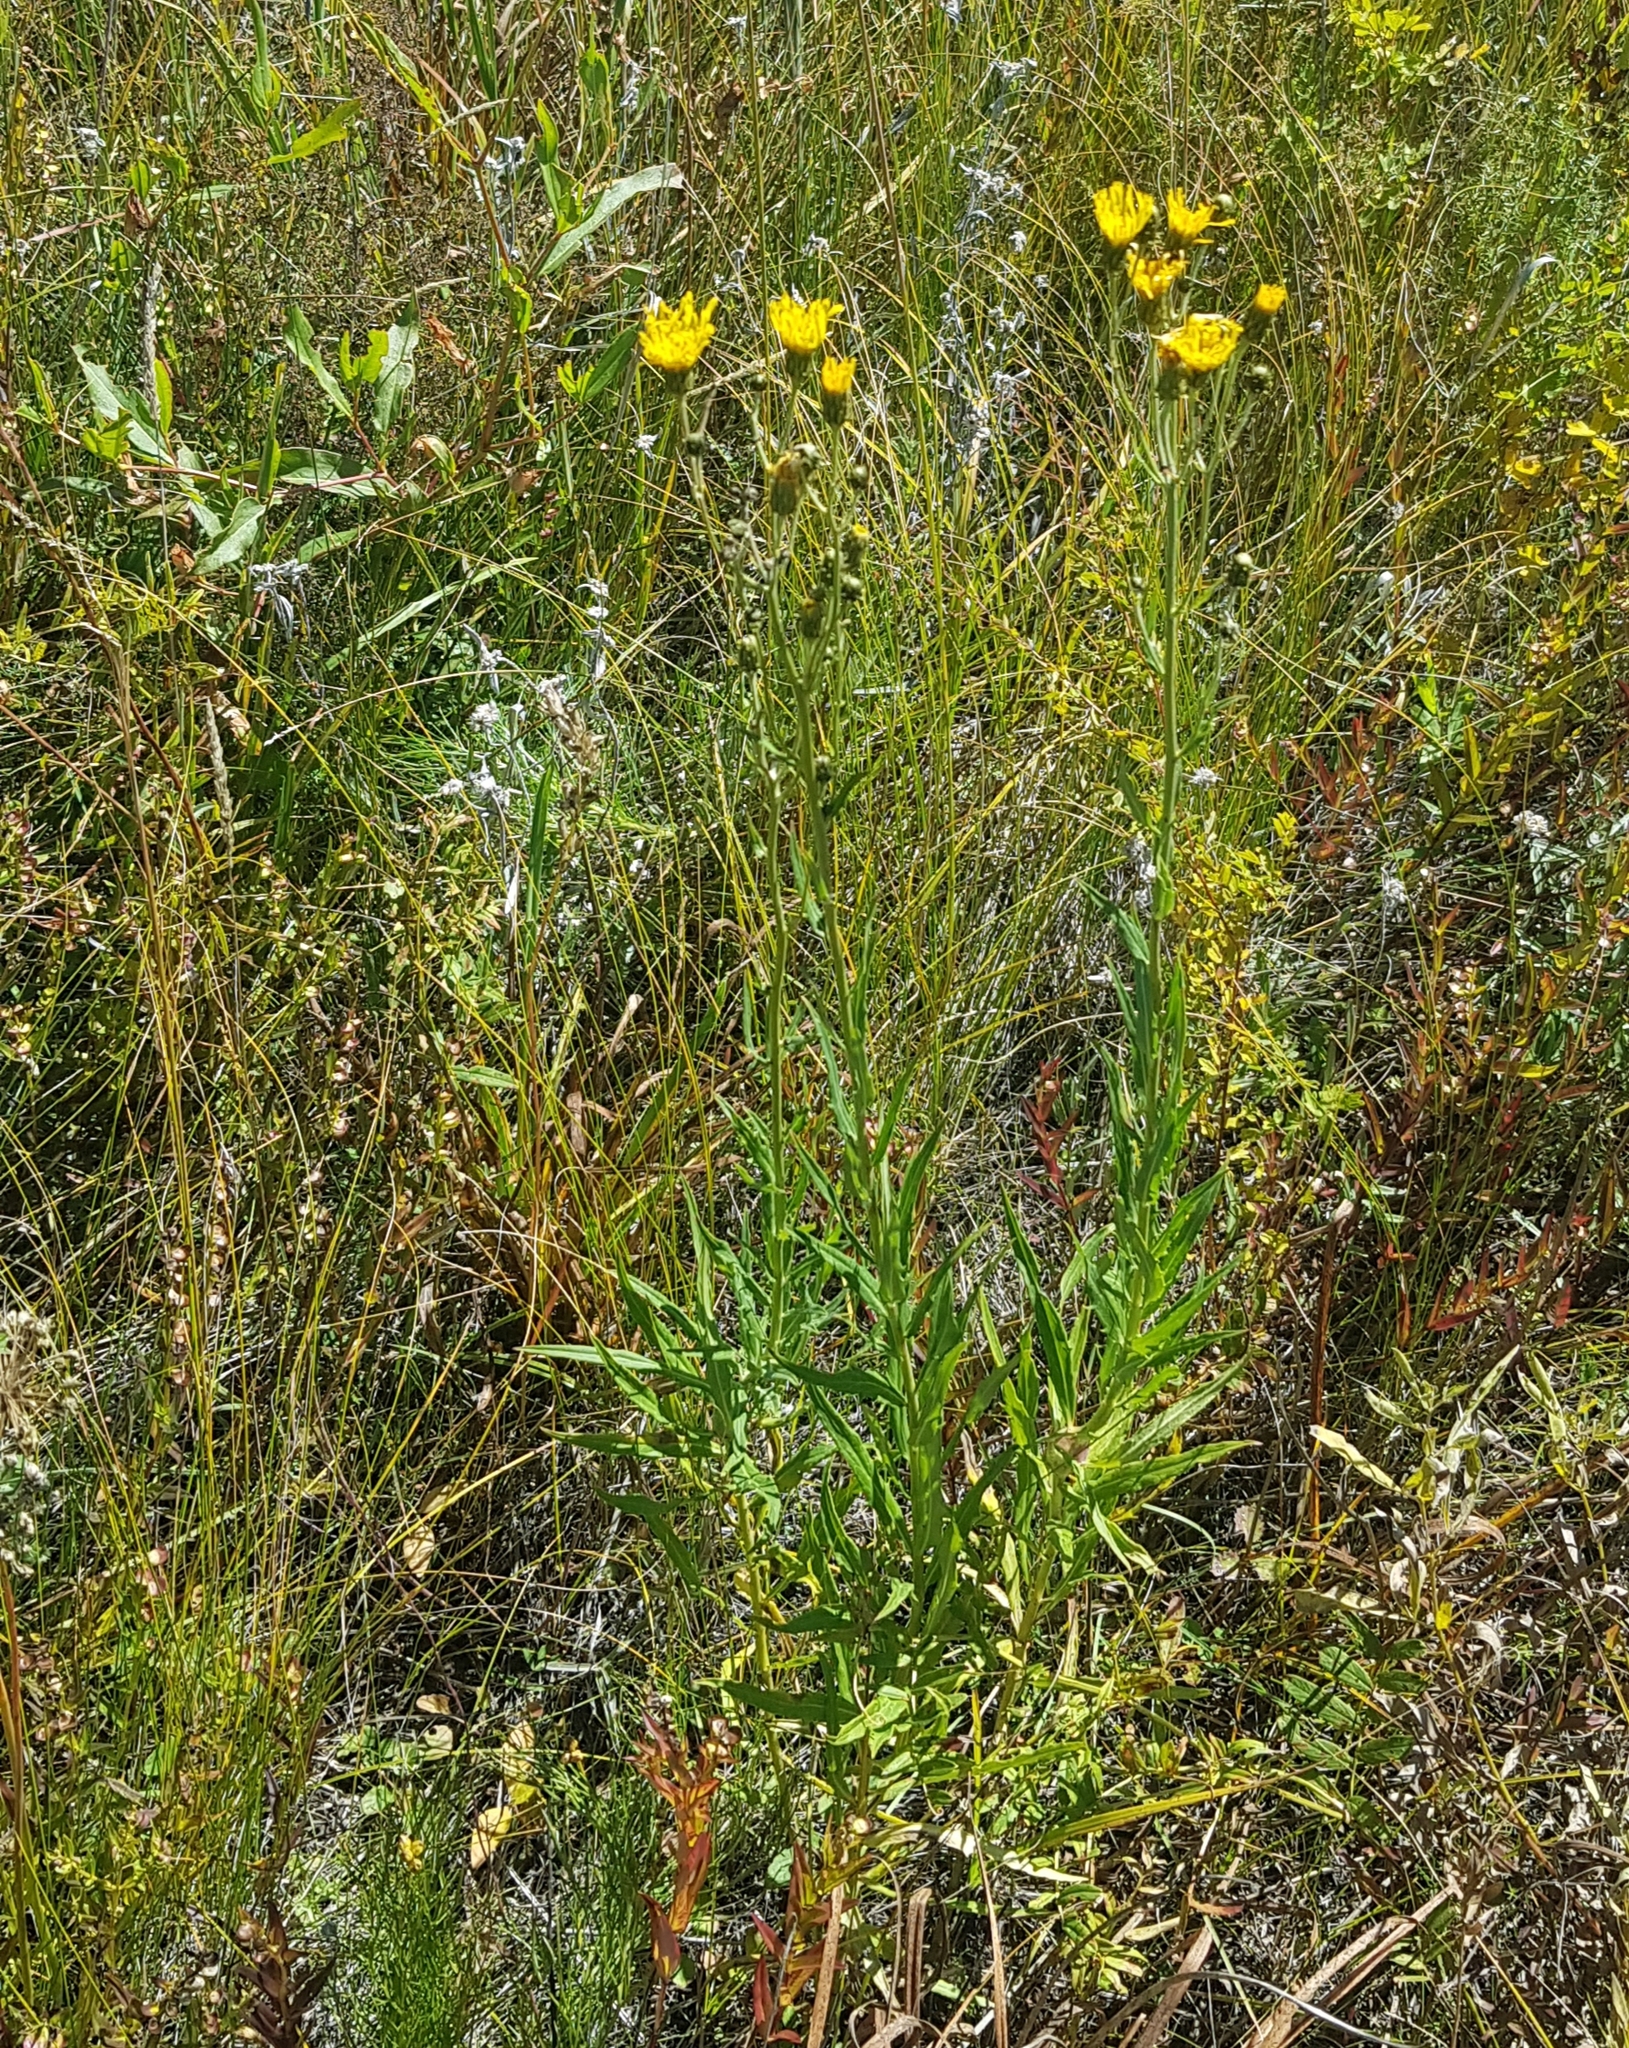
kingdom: Plantae
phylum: Tracheophyta
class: Magnoliopsida
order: Asterales
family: Asteraceae
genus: Pilosella
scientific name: Pilosella echioides
